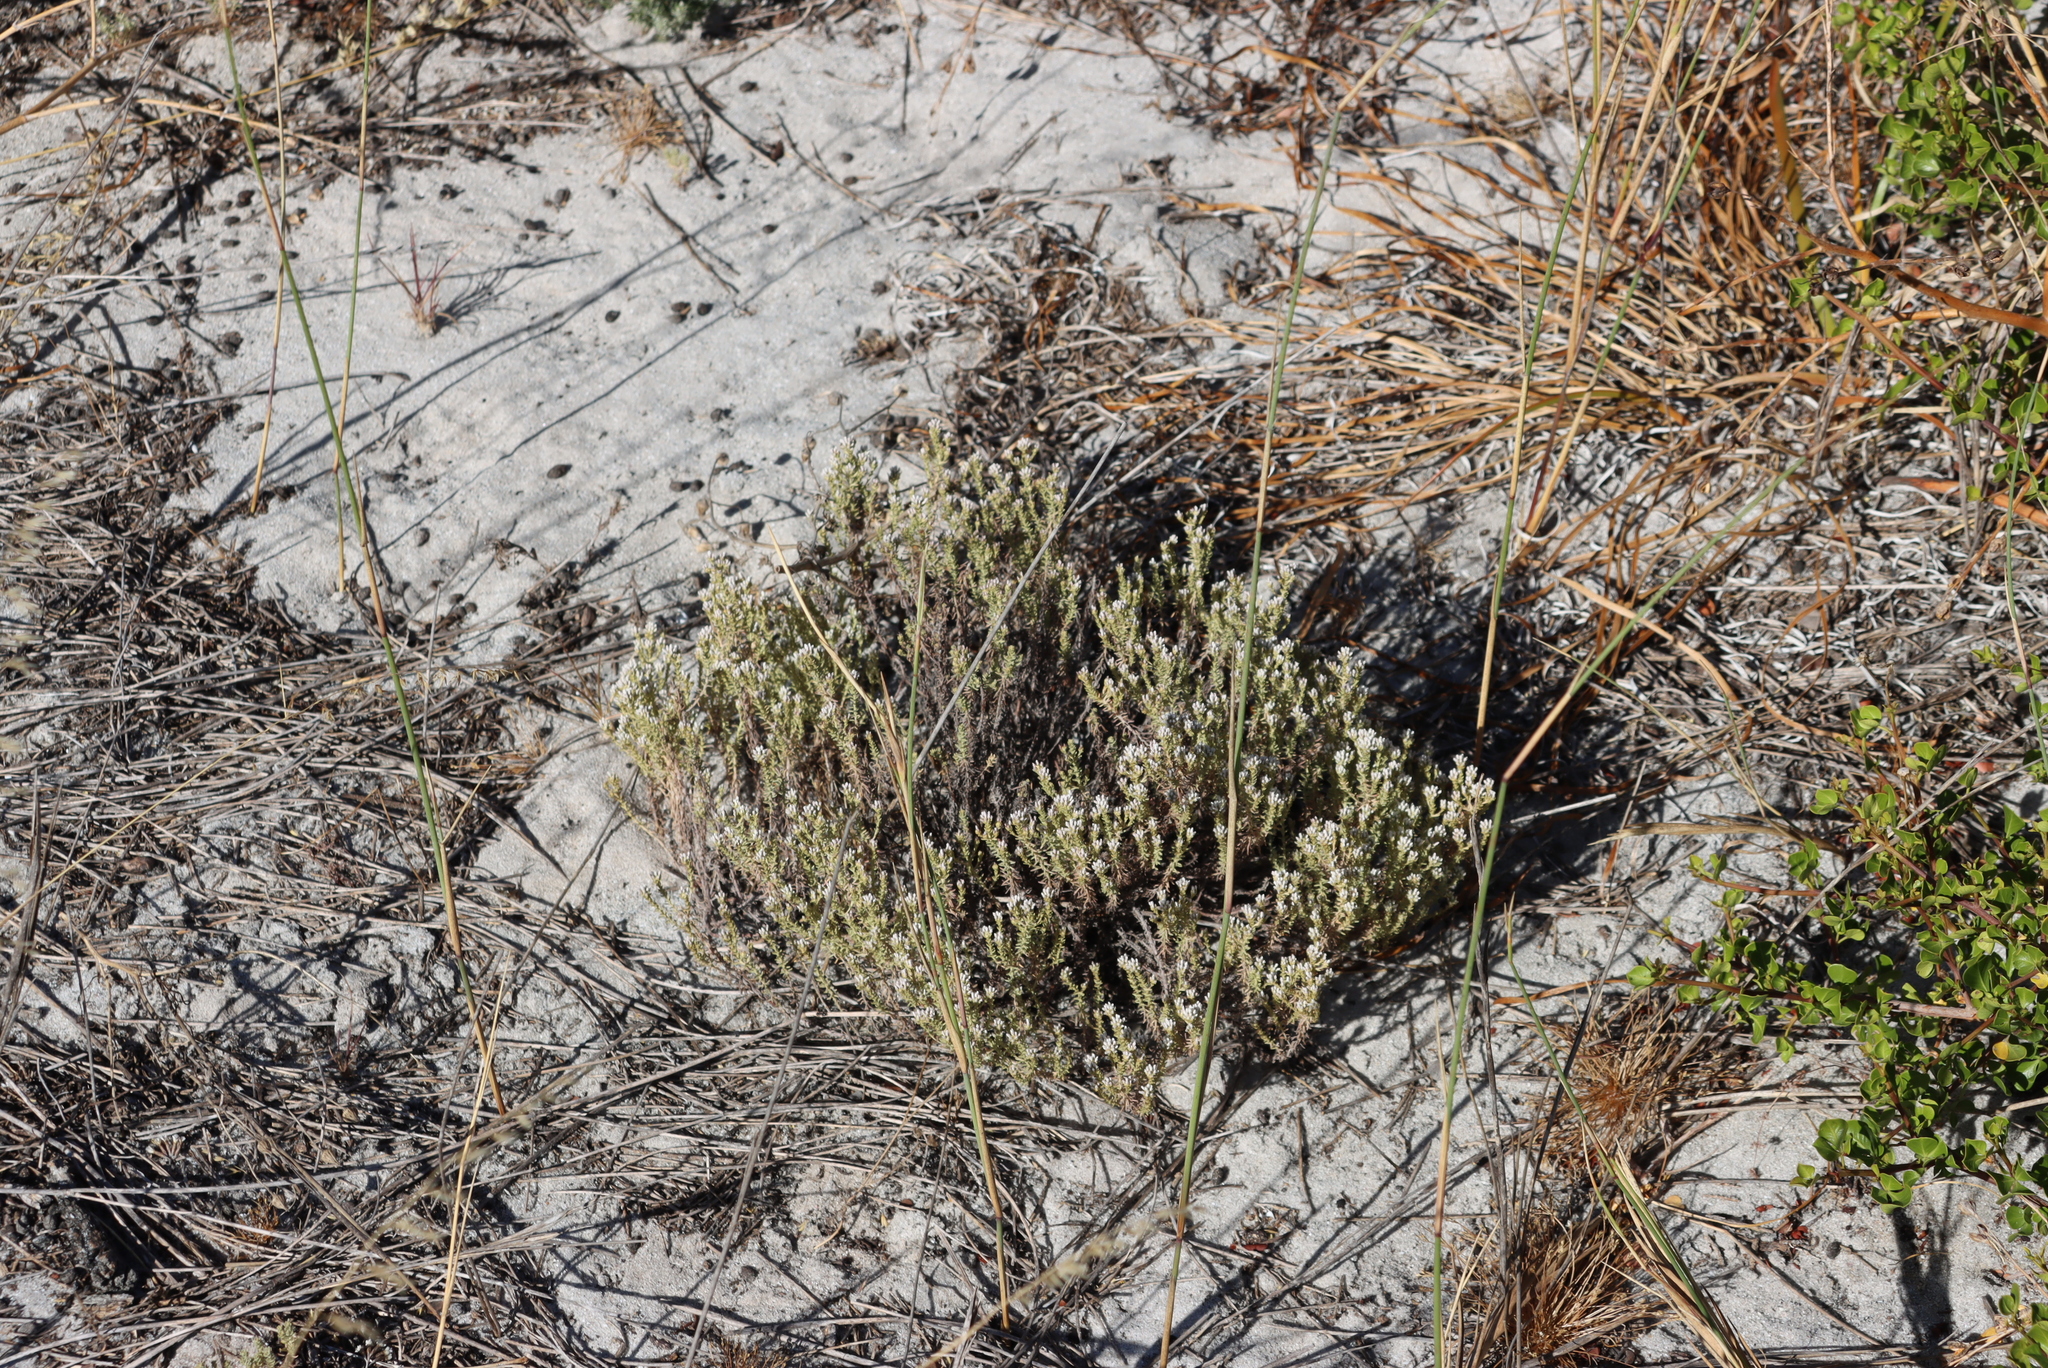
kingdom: Plantae
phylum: Tracheophyta
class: Magnoliopsida
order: Asterales
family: Asteraceae
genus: Helichrysum
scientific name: Helichrysum niveum
